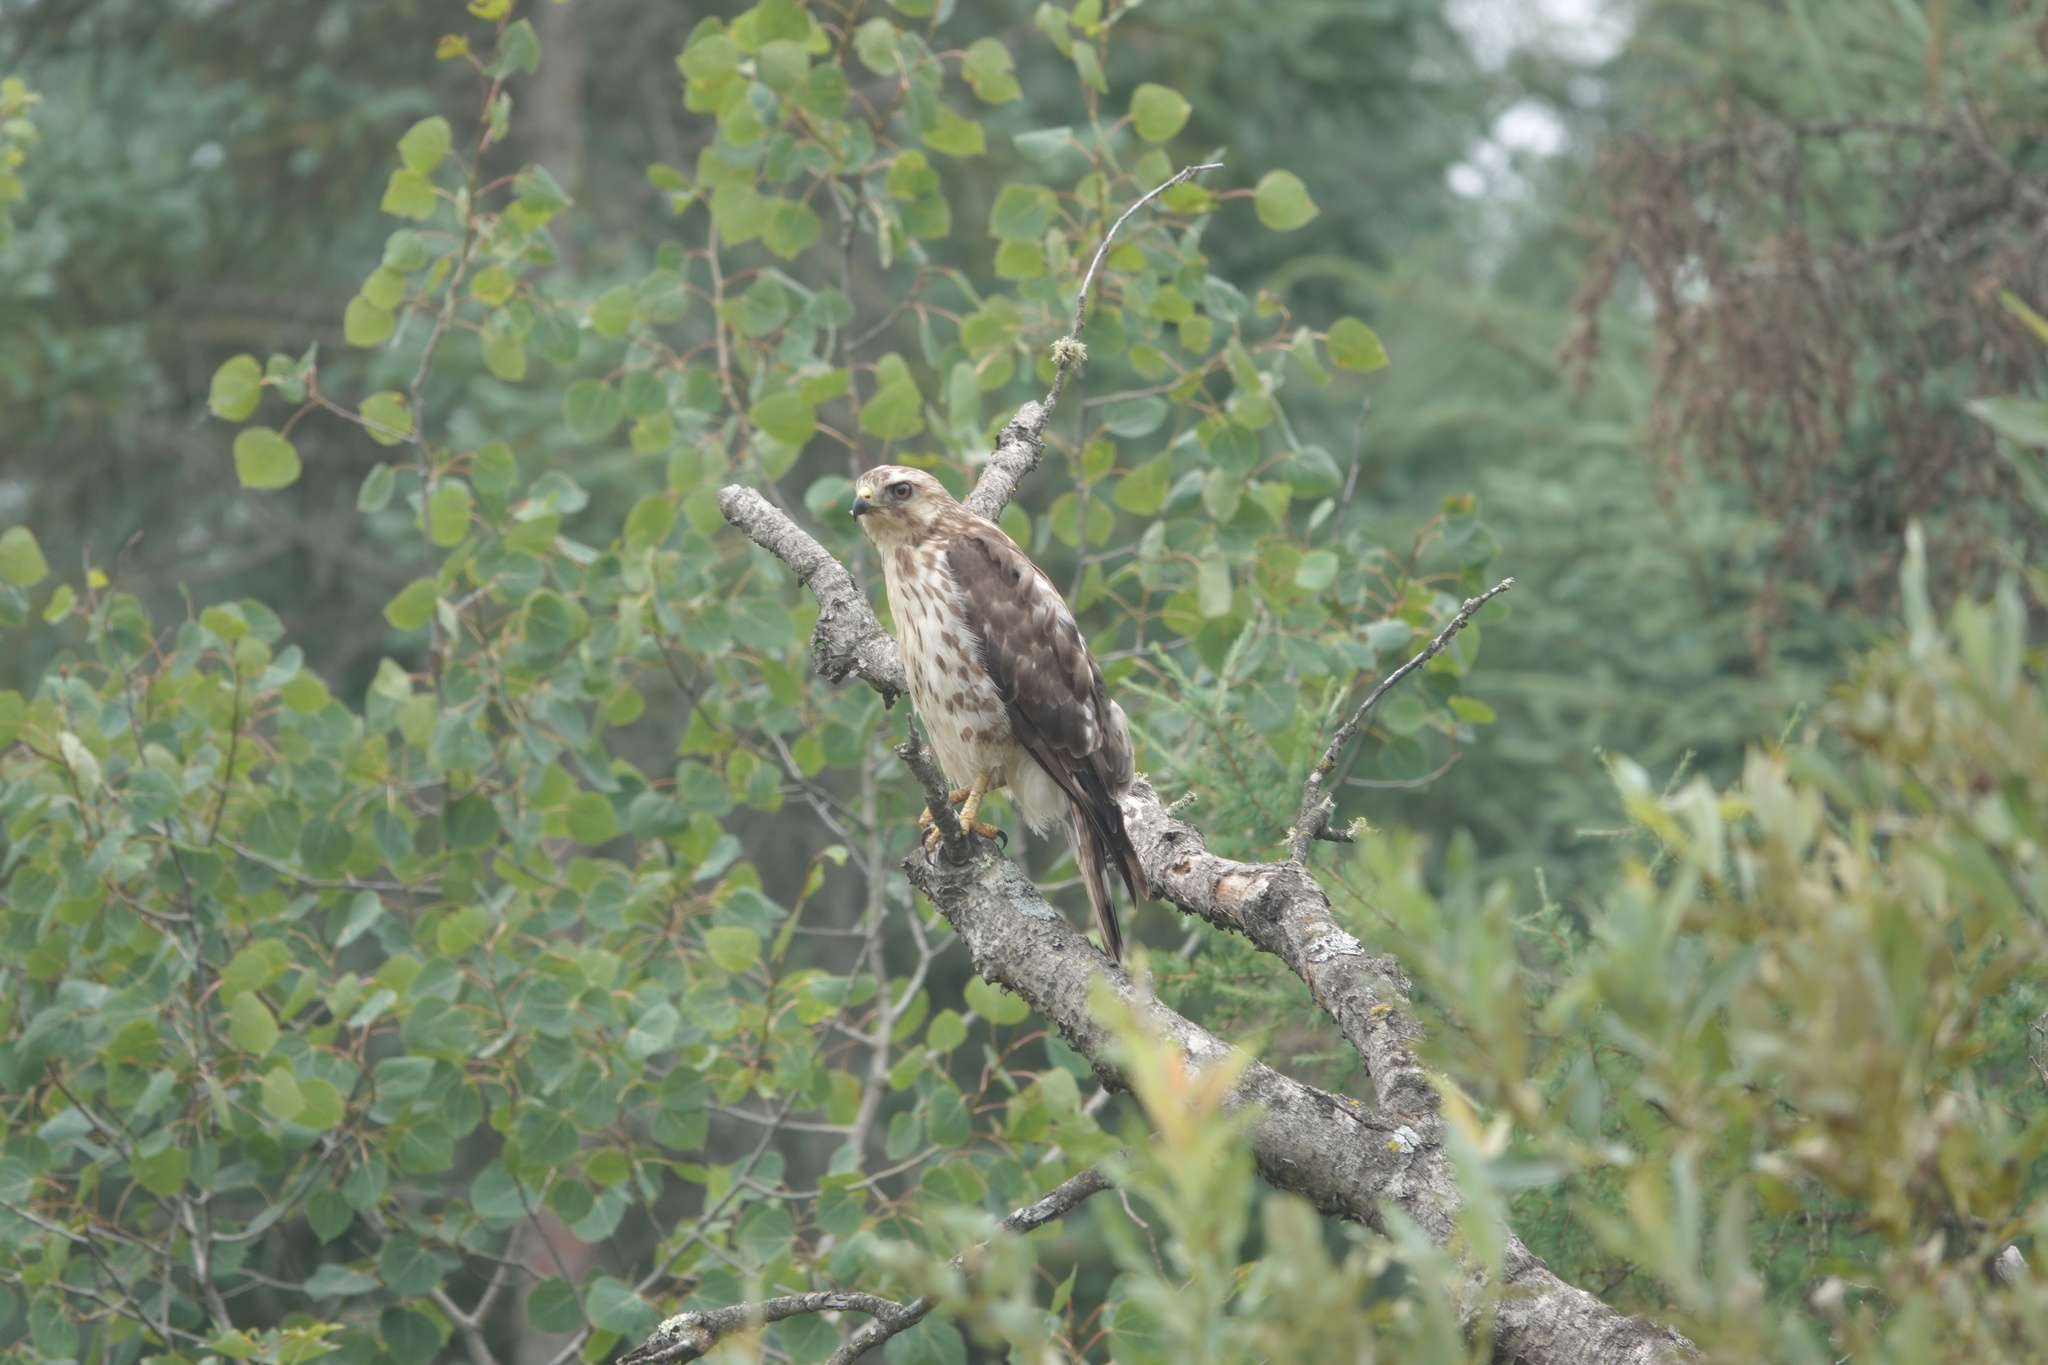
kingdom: Animalia
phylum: Chordata
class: Aves
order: Accipitriformes
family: Accipitridae
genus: Buteo
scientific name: Buteo platypterus
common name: Broad-winged hawk
